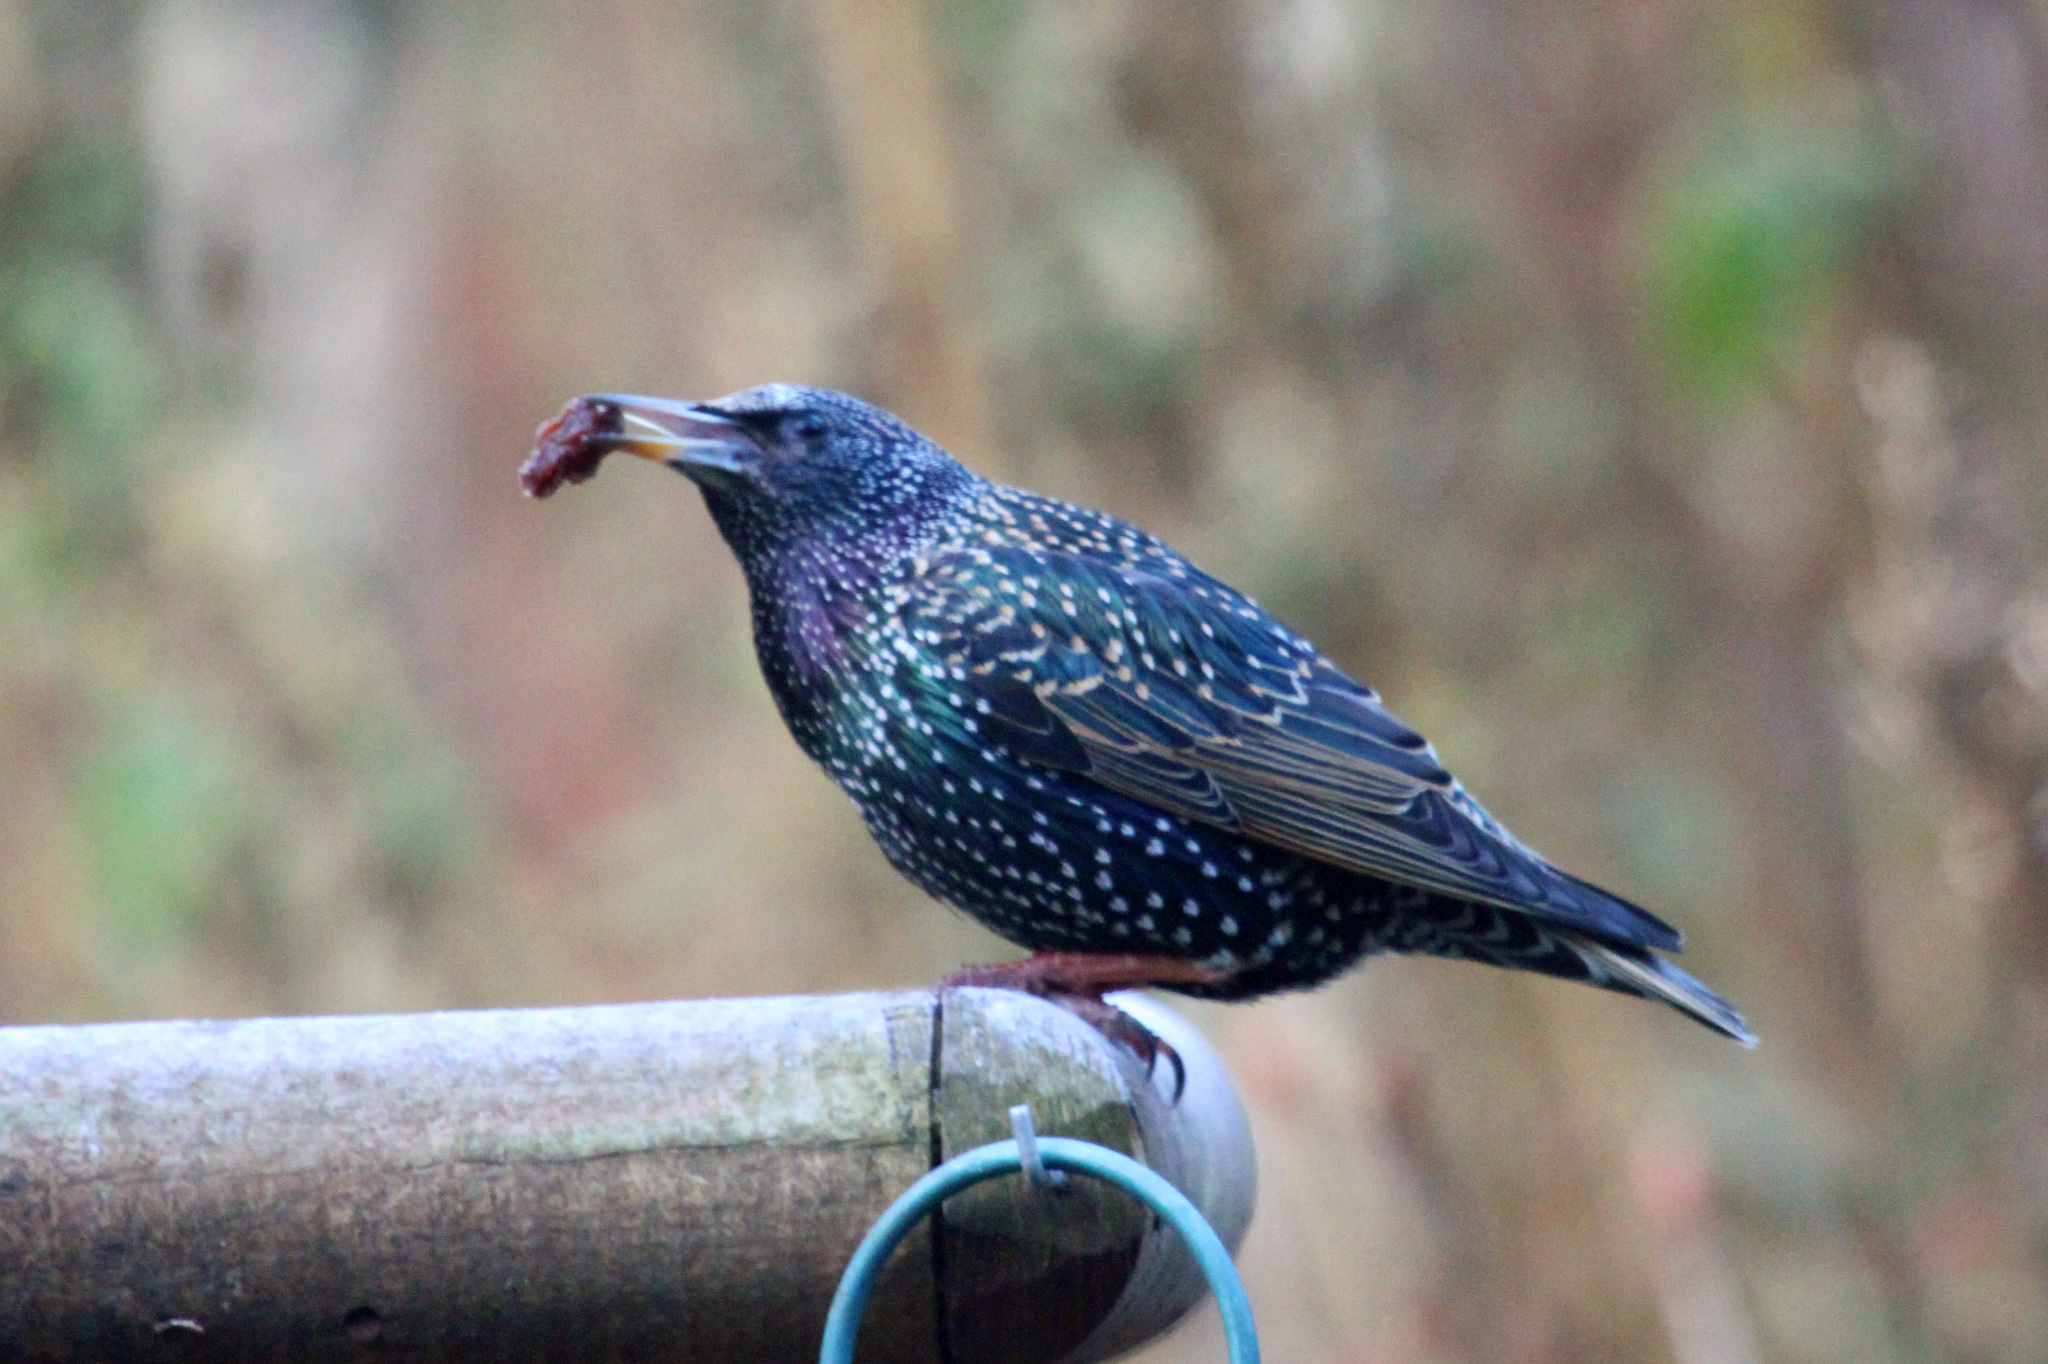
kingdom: Animalia
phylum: Chordata
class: Aves
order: Passeriformes
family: Sturnidae
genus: Sturnus
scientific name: Sturnus vulgaris
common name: Common starling
